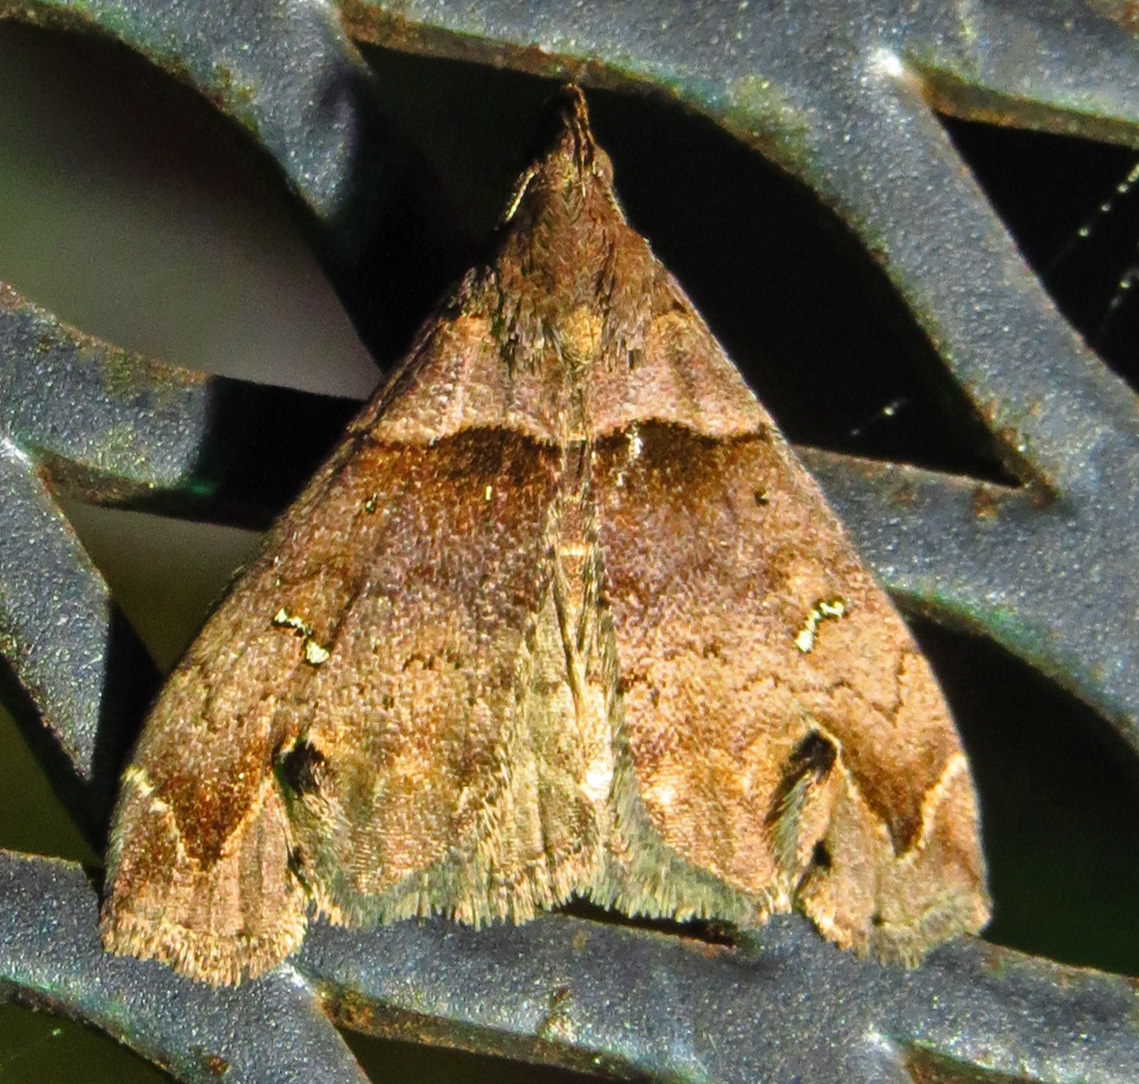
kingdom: Animalia
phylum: Arthropoda
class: Insecta
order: Lepidoptera
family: Erebidae
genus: Lascoria
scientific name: Lascoria ambigualis
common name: Ambiguous moth
